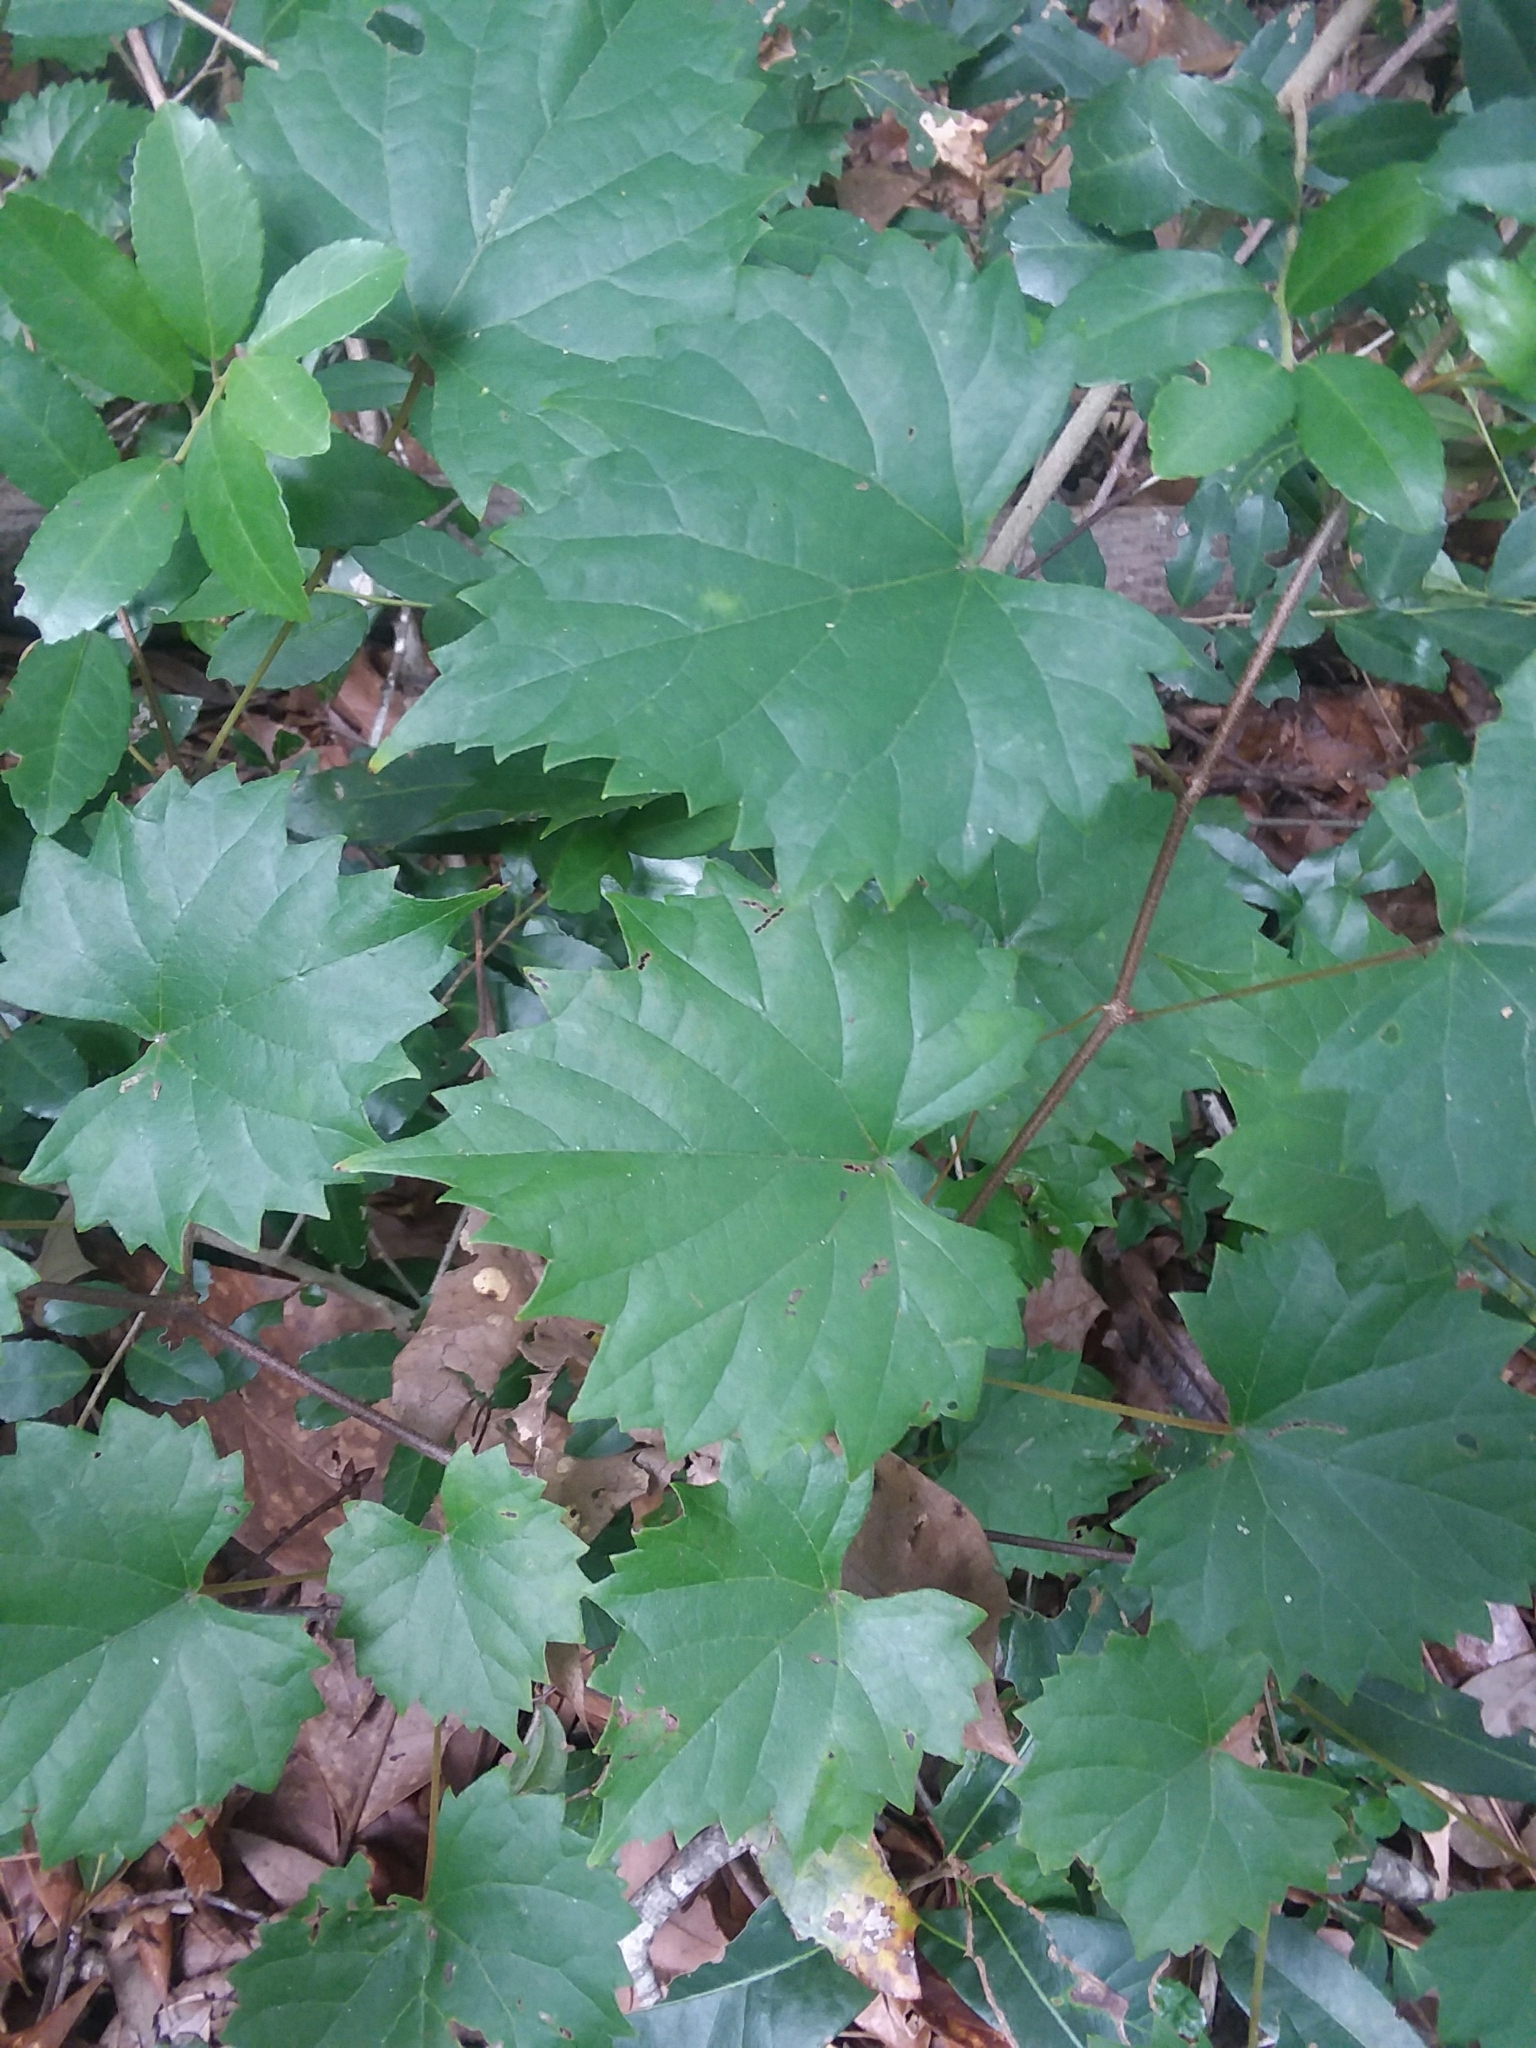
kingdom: Plantae
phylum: Tracheophyta
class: Magnoliopsida
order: Vitales
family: Vitaceae
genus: Vitis
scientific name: Vitis rotundifolia
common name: Muscadine grape
